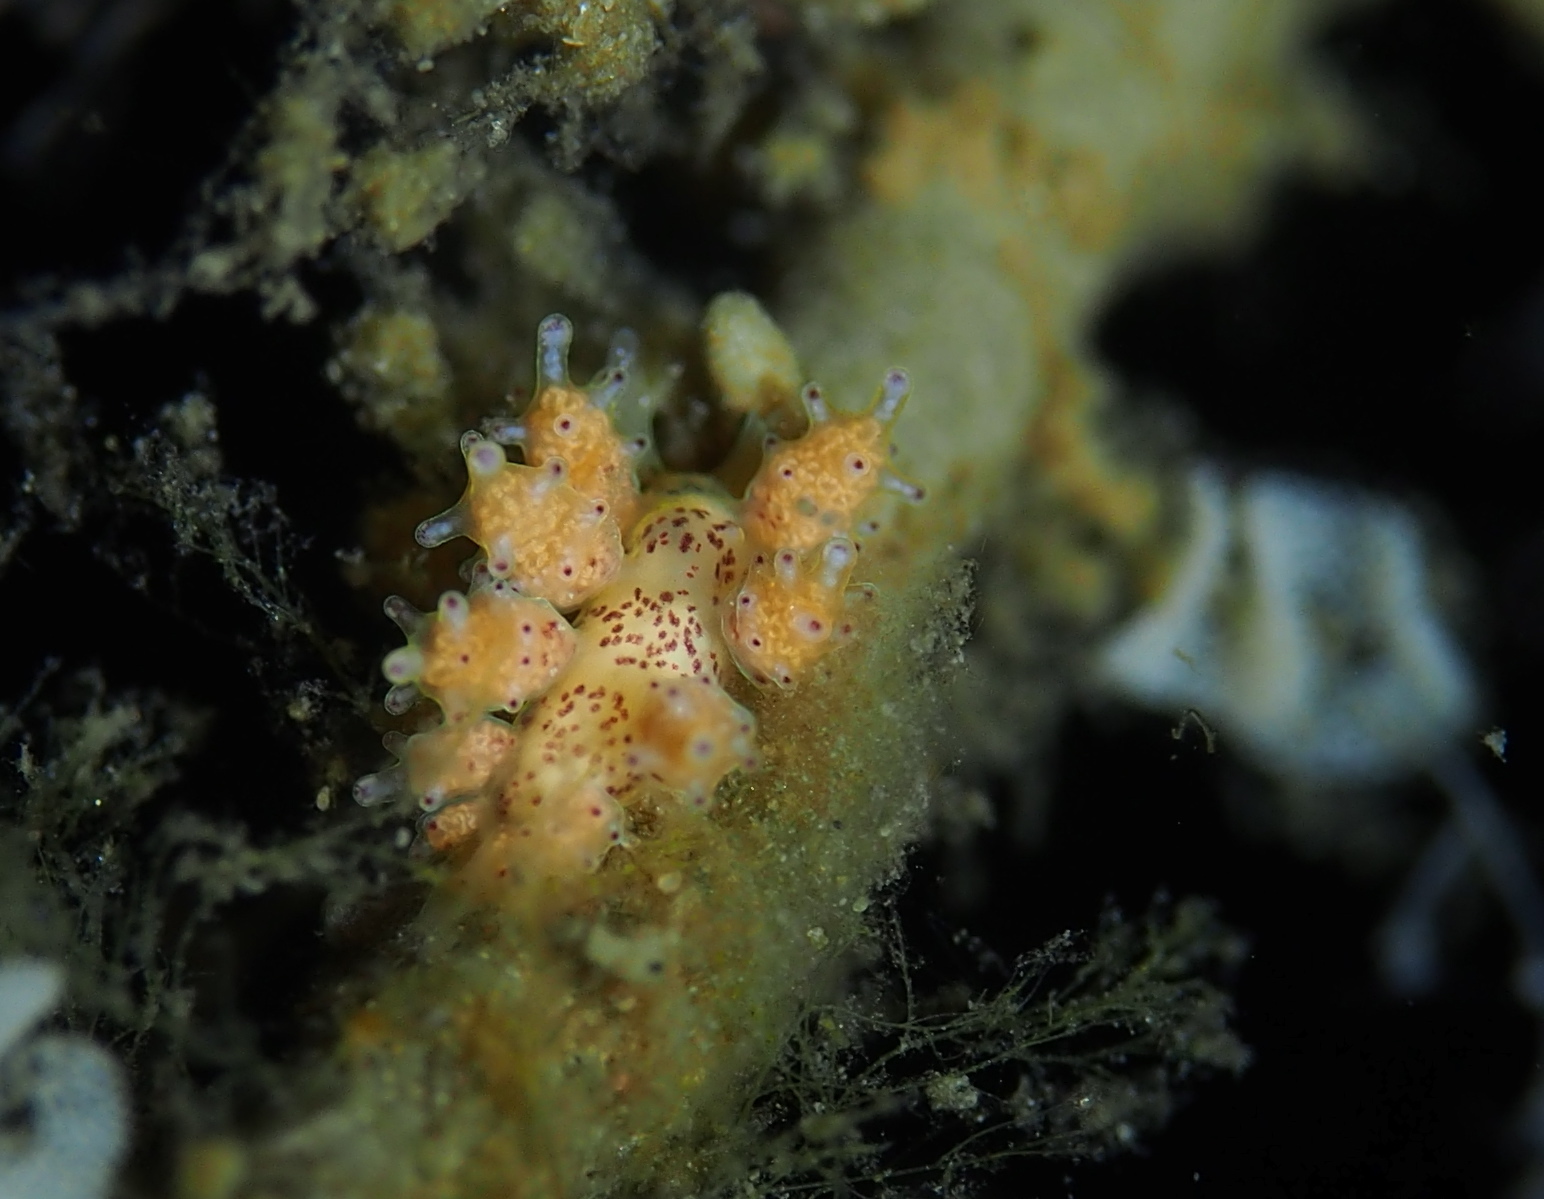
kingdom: Animalia
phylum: Mollusca
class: Gastropoda
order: Nudibranchia
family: Dotidae
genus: Doto
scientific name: Doto dunnei
